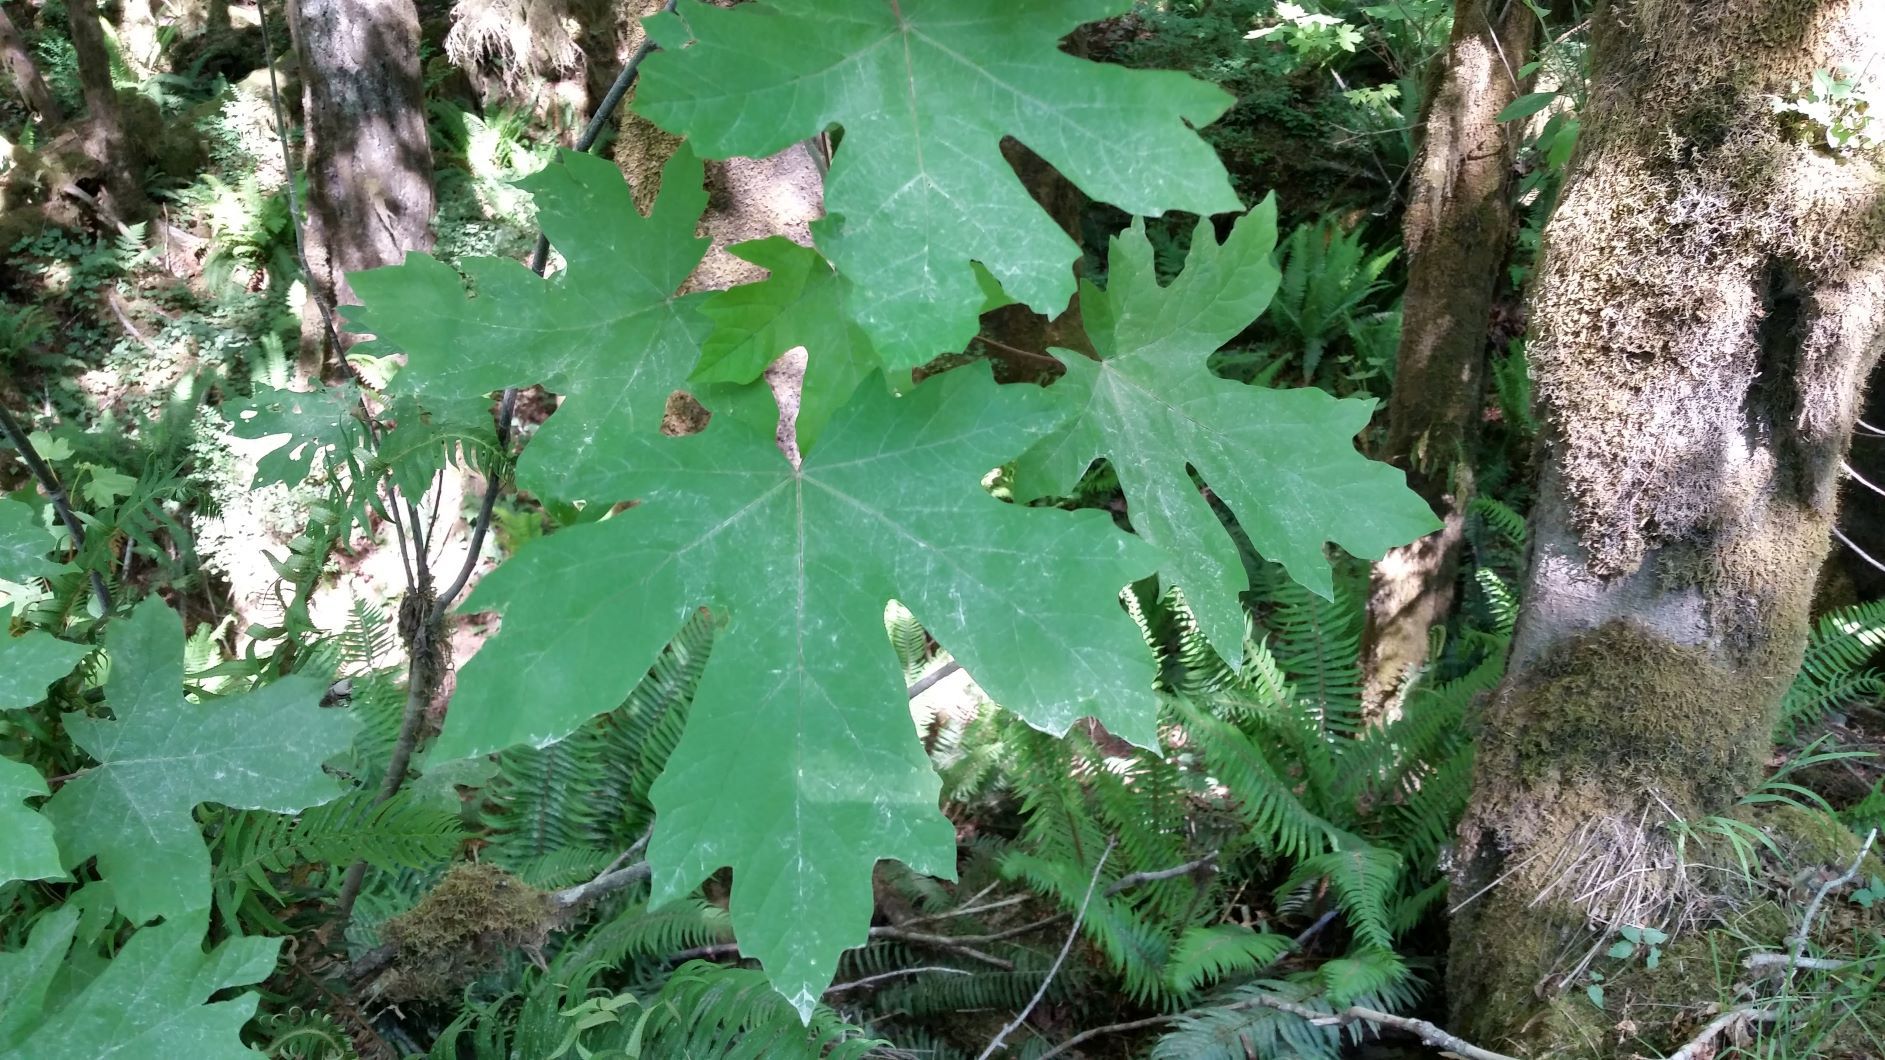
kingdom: Plantae
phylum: Tracheophyta
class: Magnoliopsida
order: Sapindales
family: Sapindaceae
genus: Acer
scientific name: Acer macrophyllum
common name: Oregon maple
